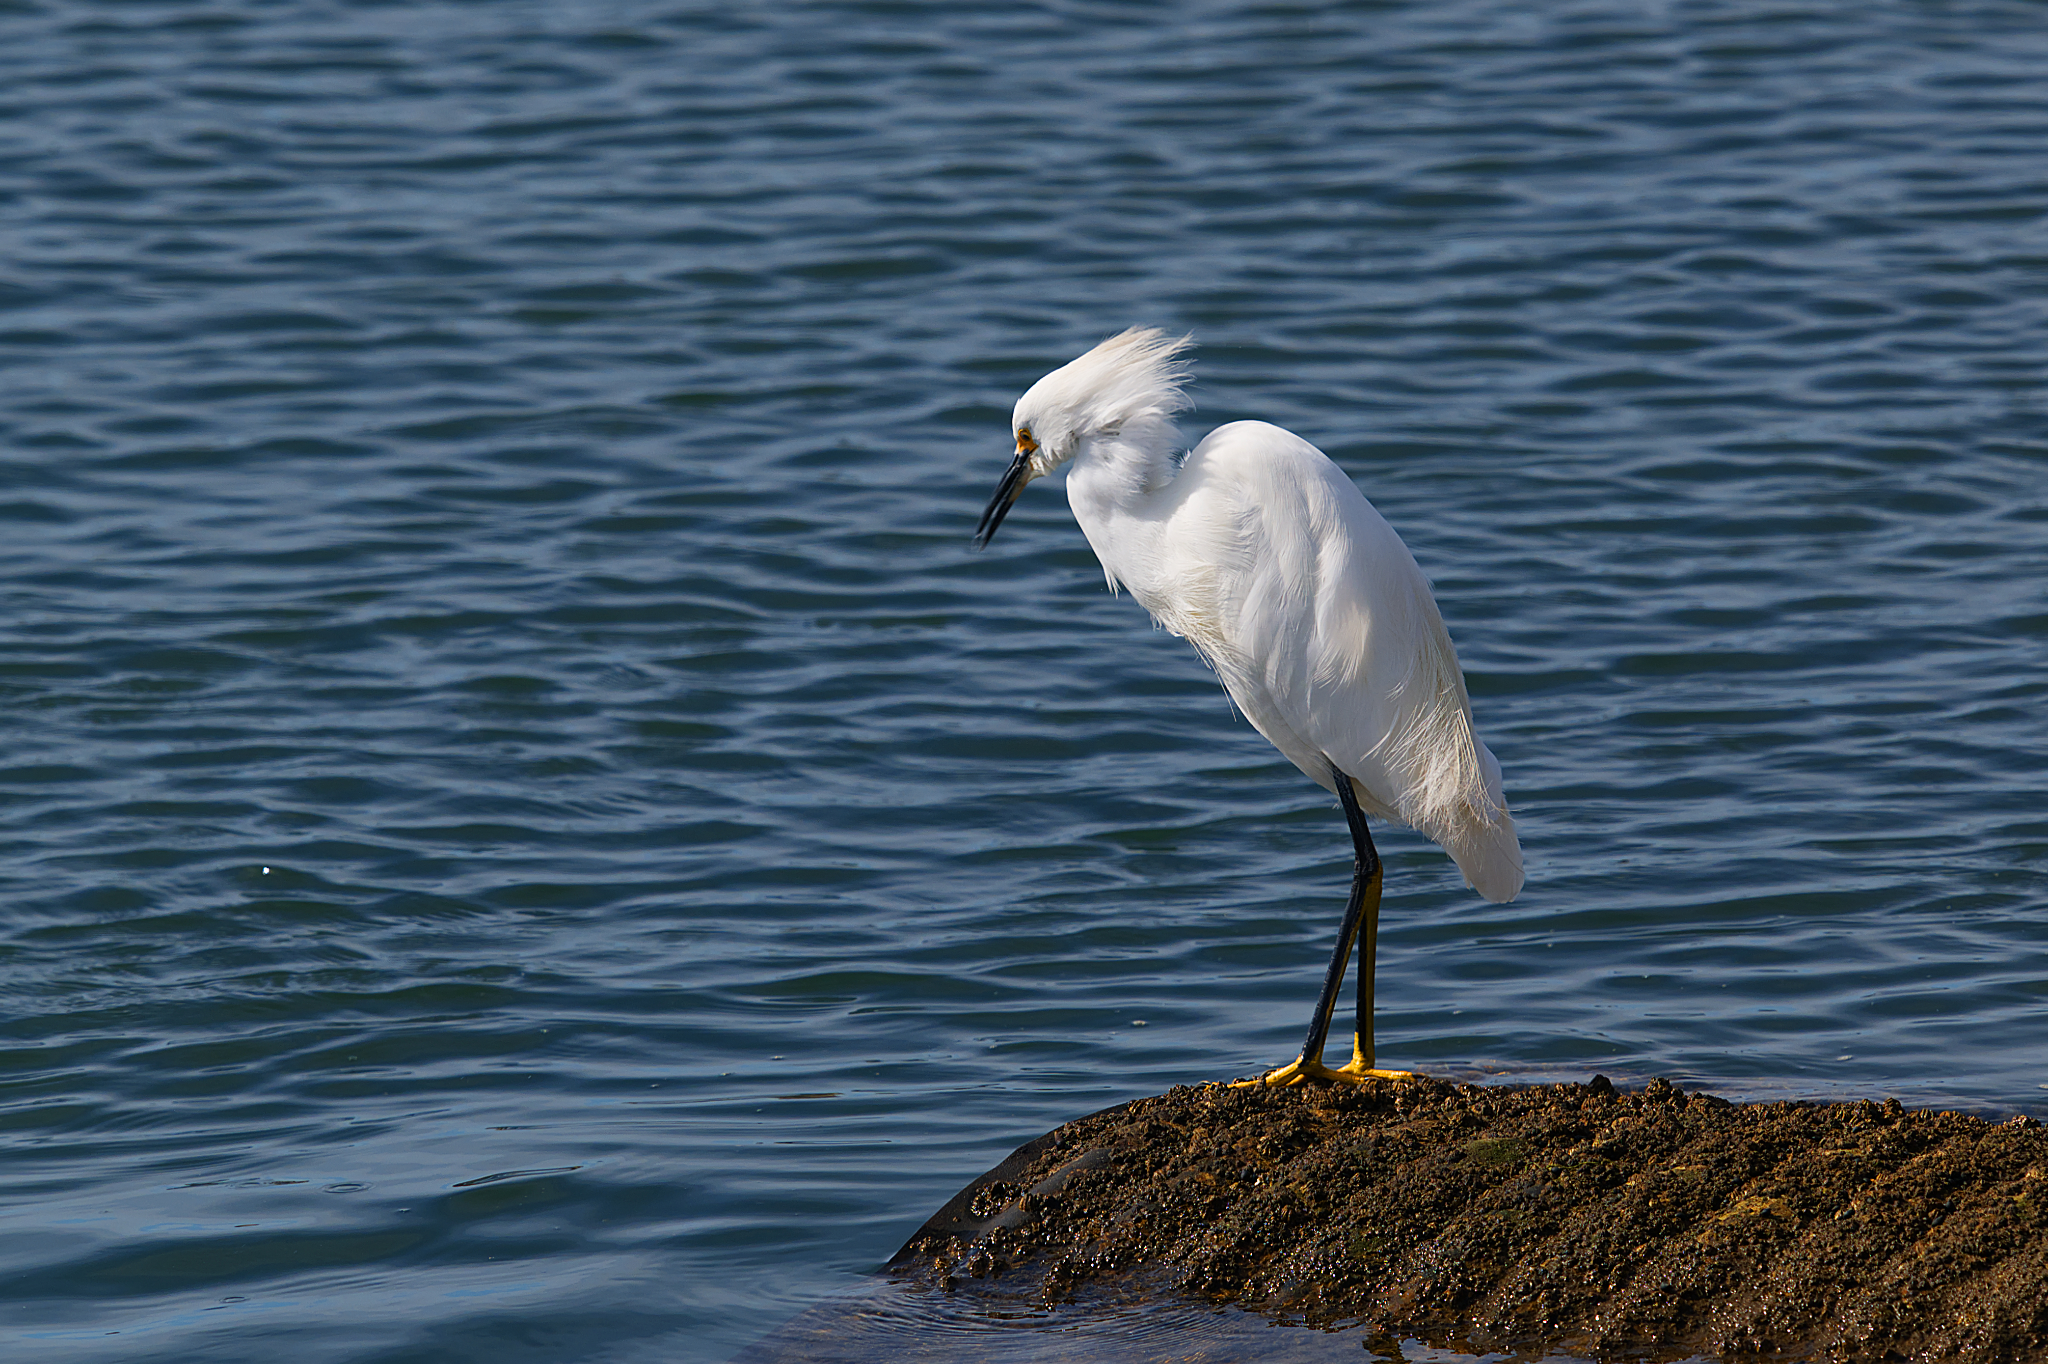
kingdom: Animalia
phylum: Chordata
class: Aves
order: Pelecaniformes
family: Ardeidae
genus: Egretta
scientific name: Egretta thula
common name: Snowy egret
